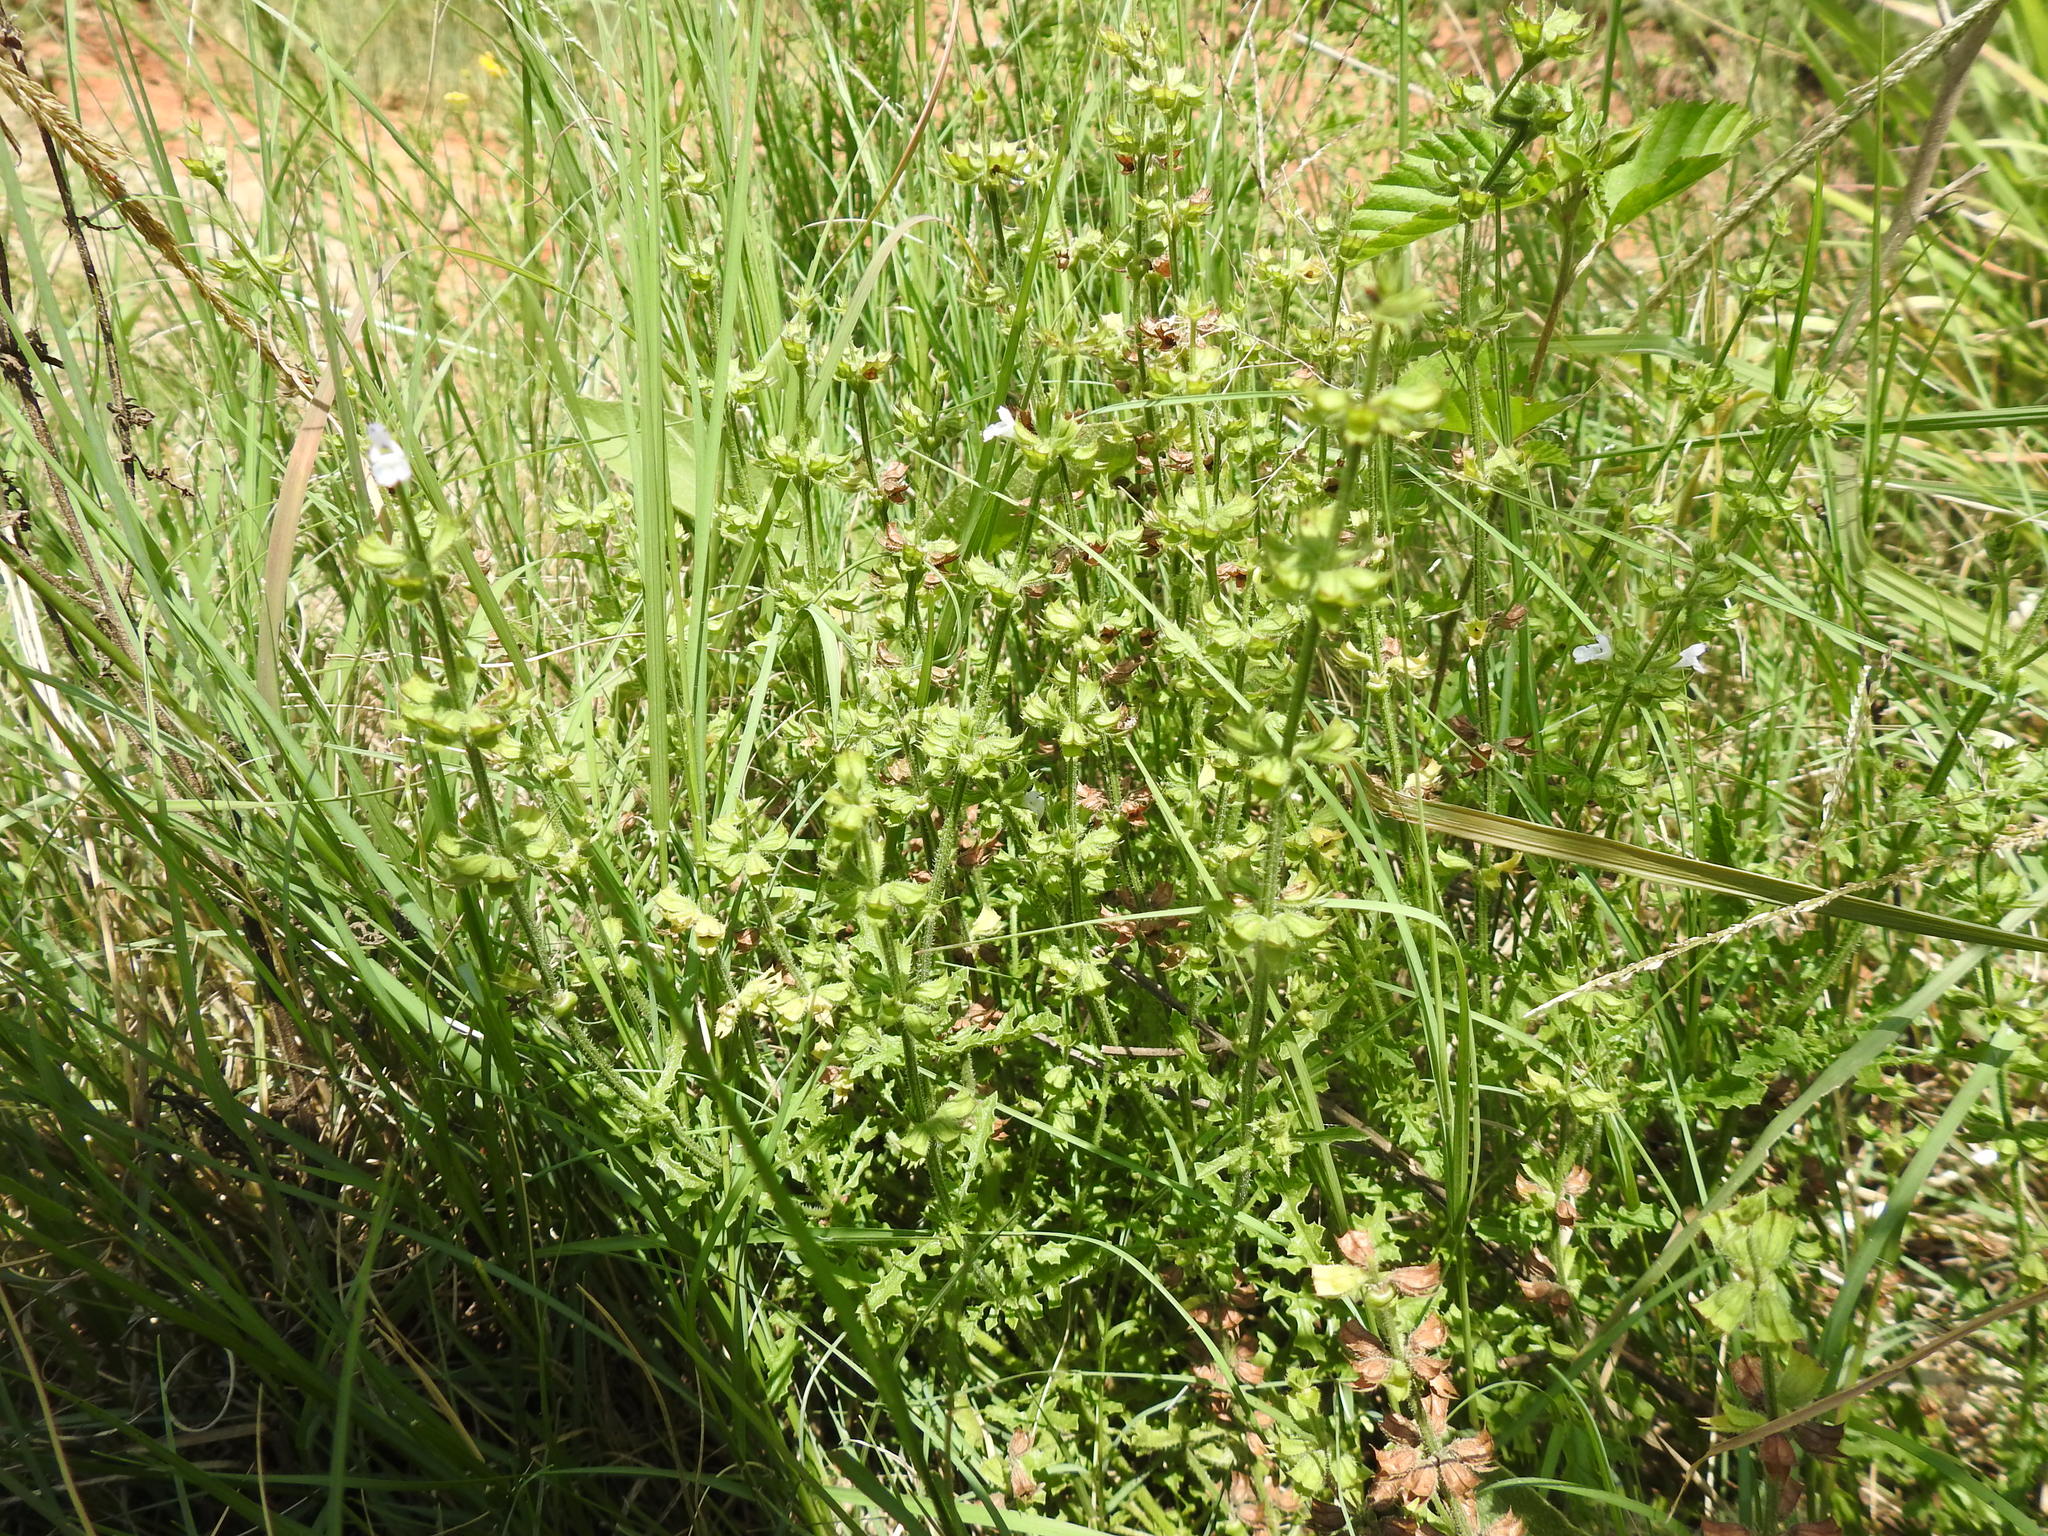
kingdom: Plantae
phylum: Tracheophyta
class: Magnoliopsida
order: Lamiales
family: Lamiaceae
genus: Salvia
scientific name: Salvia stenophylla
